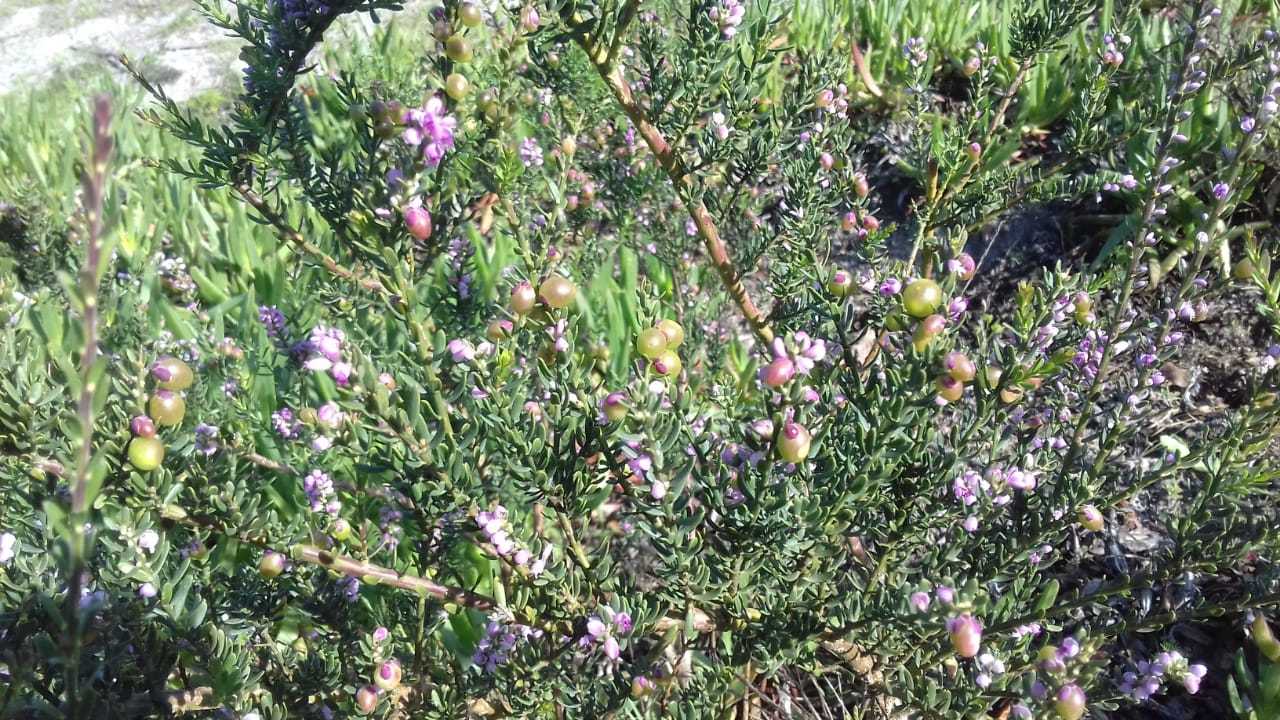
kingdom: Plantae
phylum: Tracheophyta
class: Magnoliopsida
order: Fabales
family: Polygalaceae
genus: Muraltia
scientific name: Muraltia spinosa
